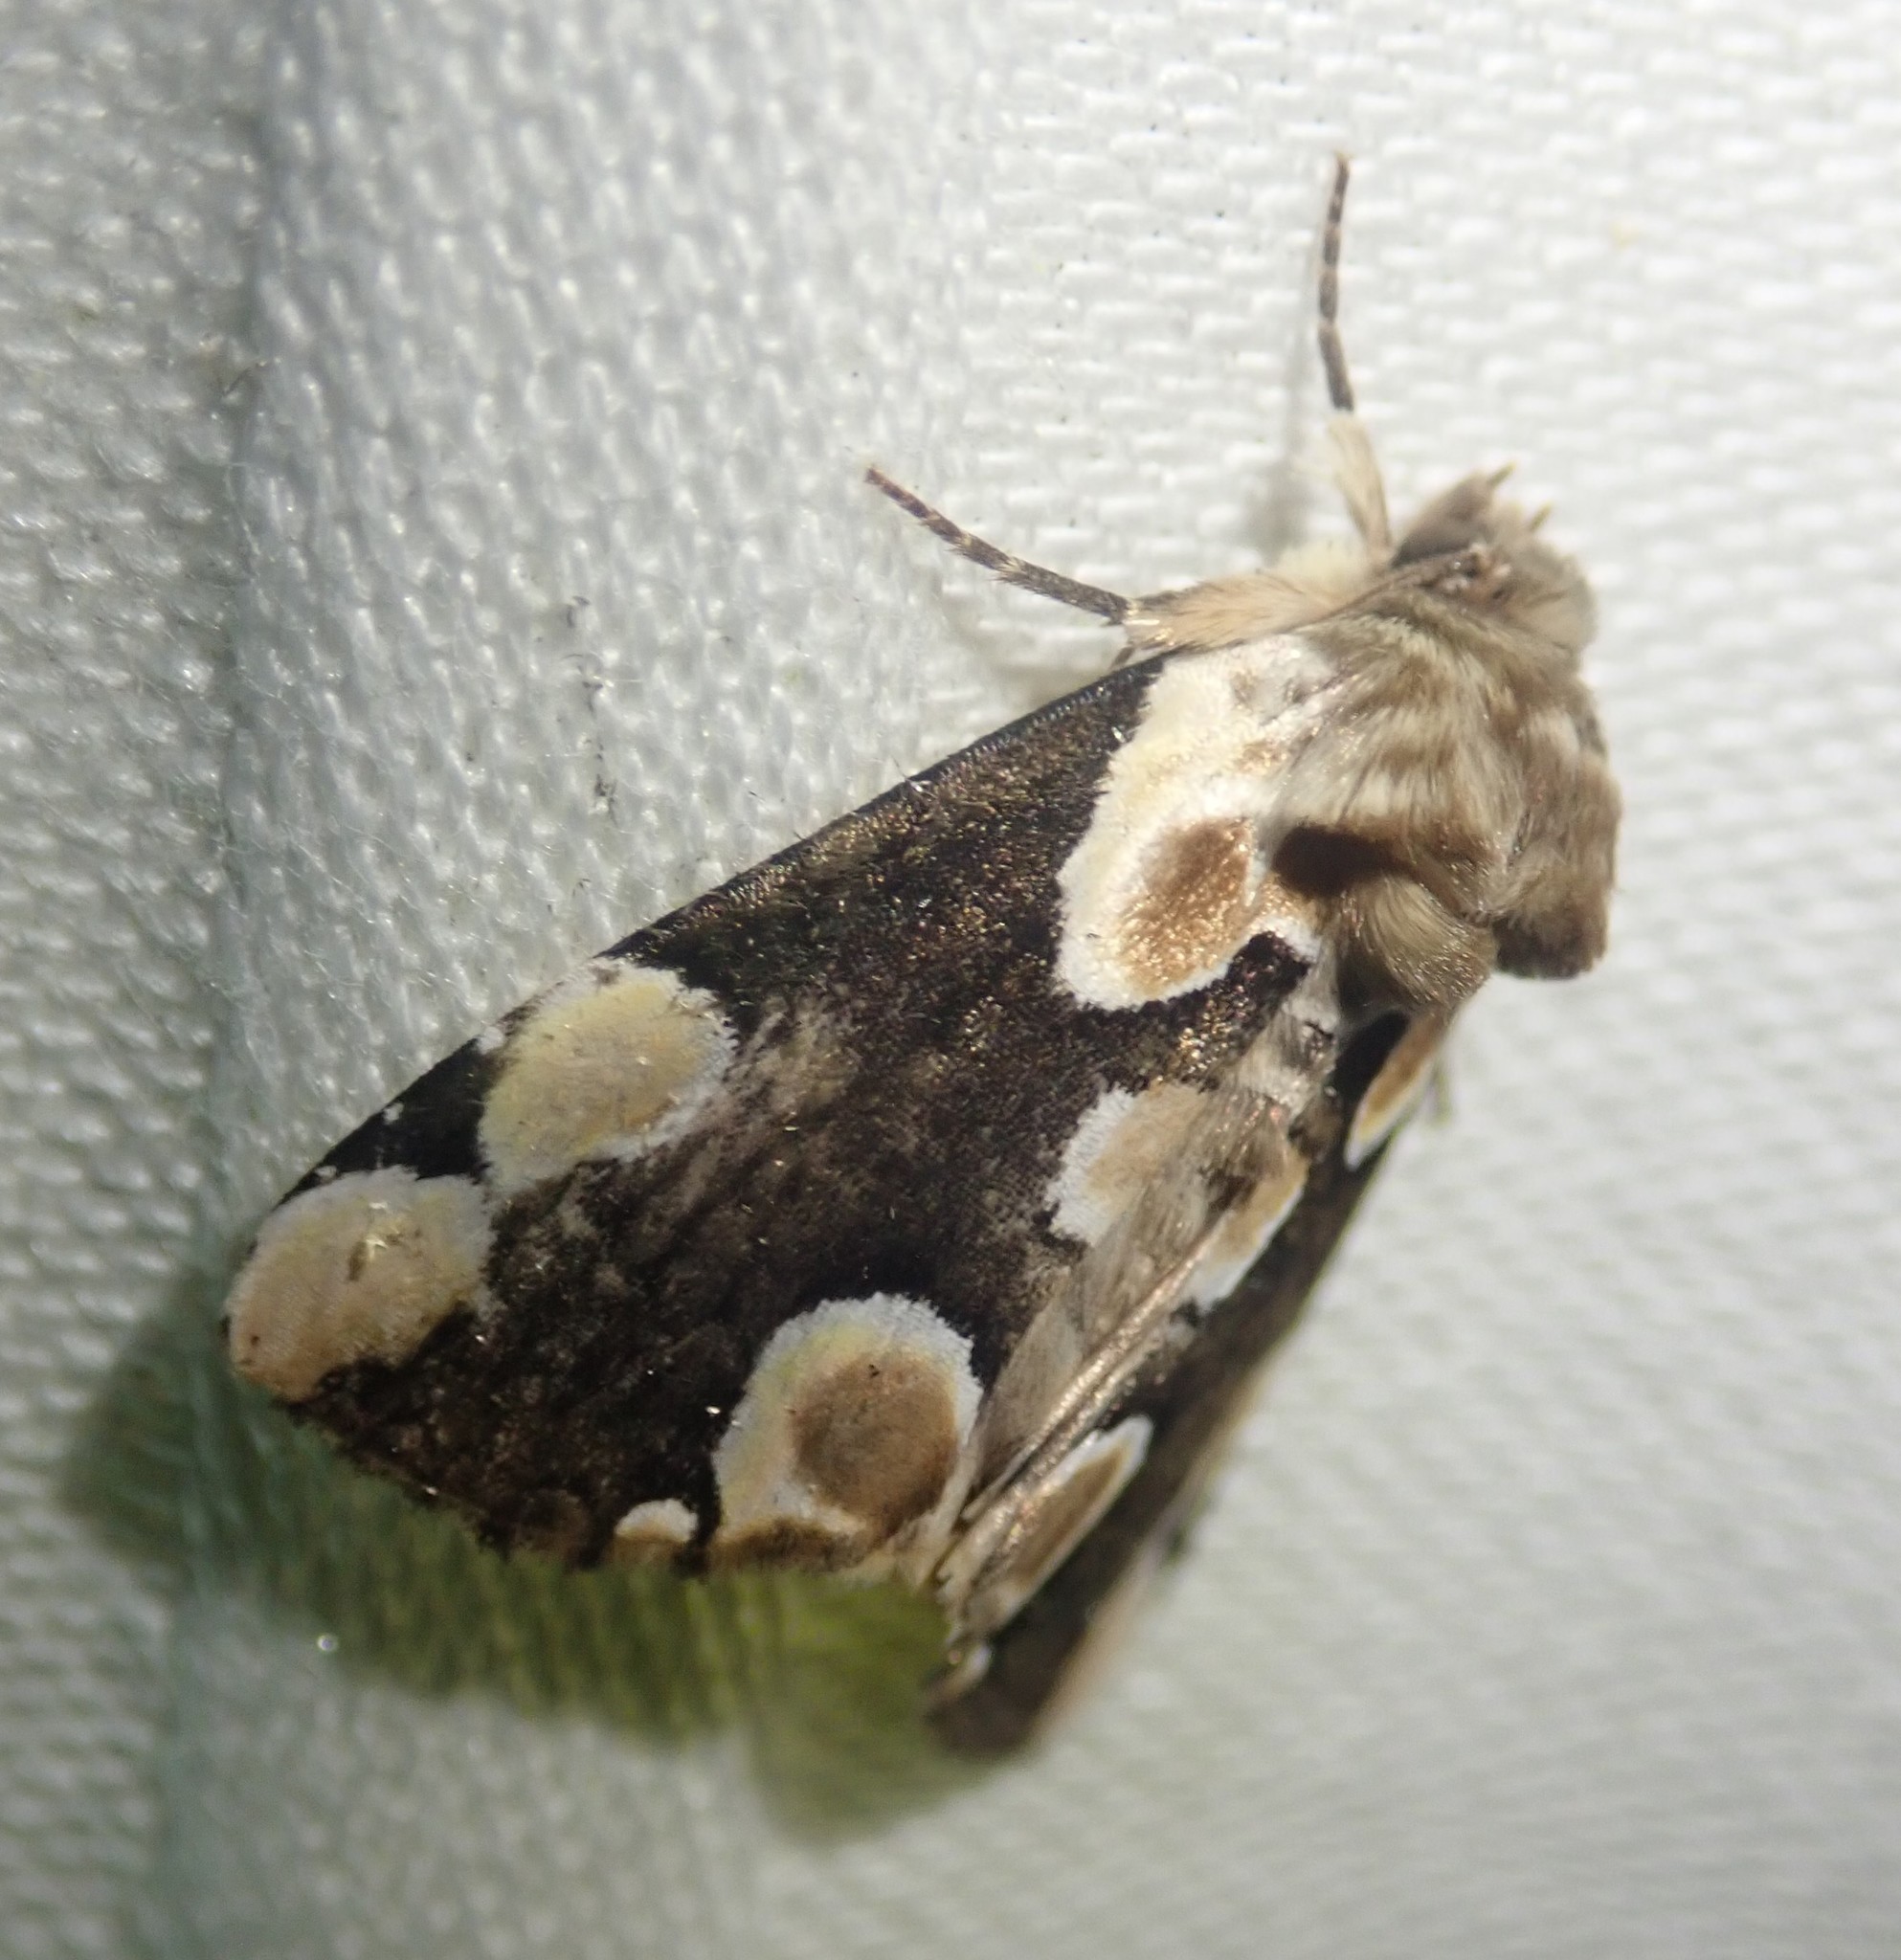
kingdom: Animalia
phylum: Arthropoda
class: Insecta
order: Lepidoptera
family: Drepanidae
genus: Thyatira
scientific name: Thyatira batis
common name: Peach blossom
